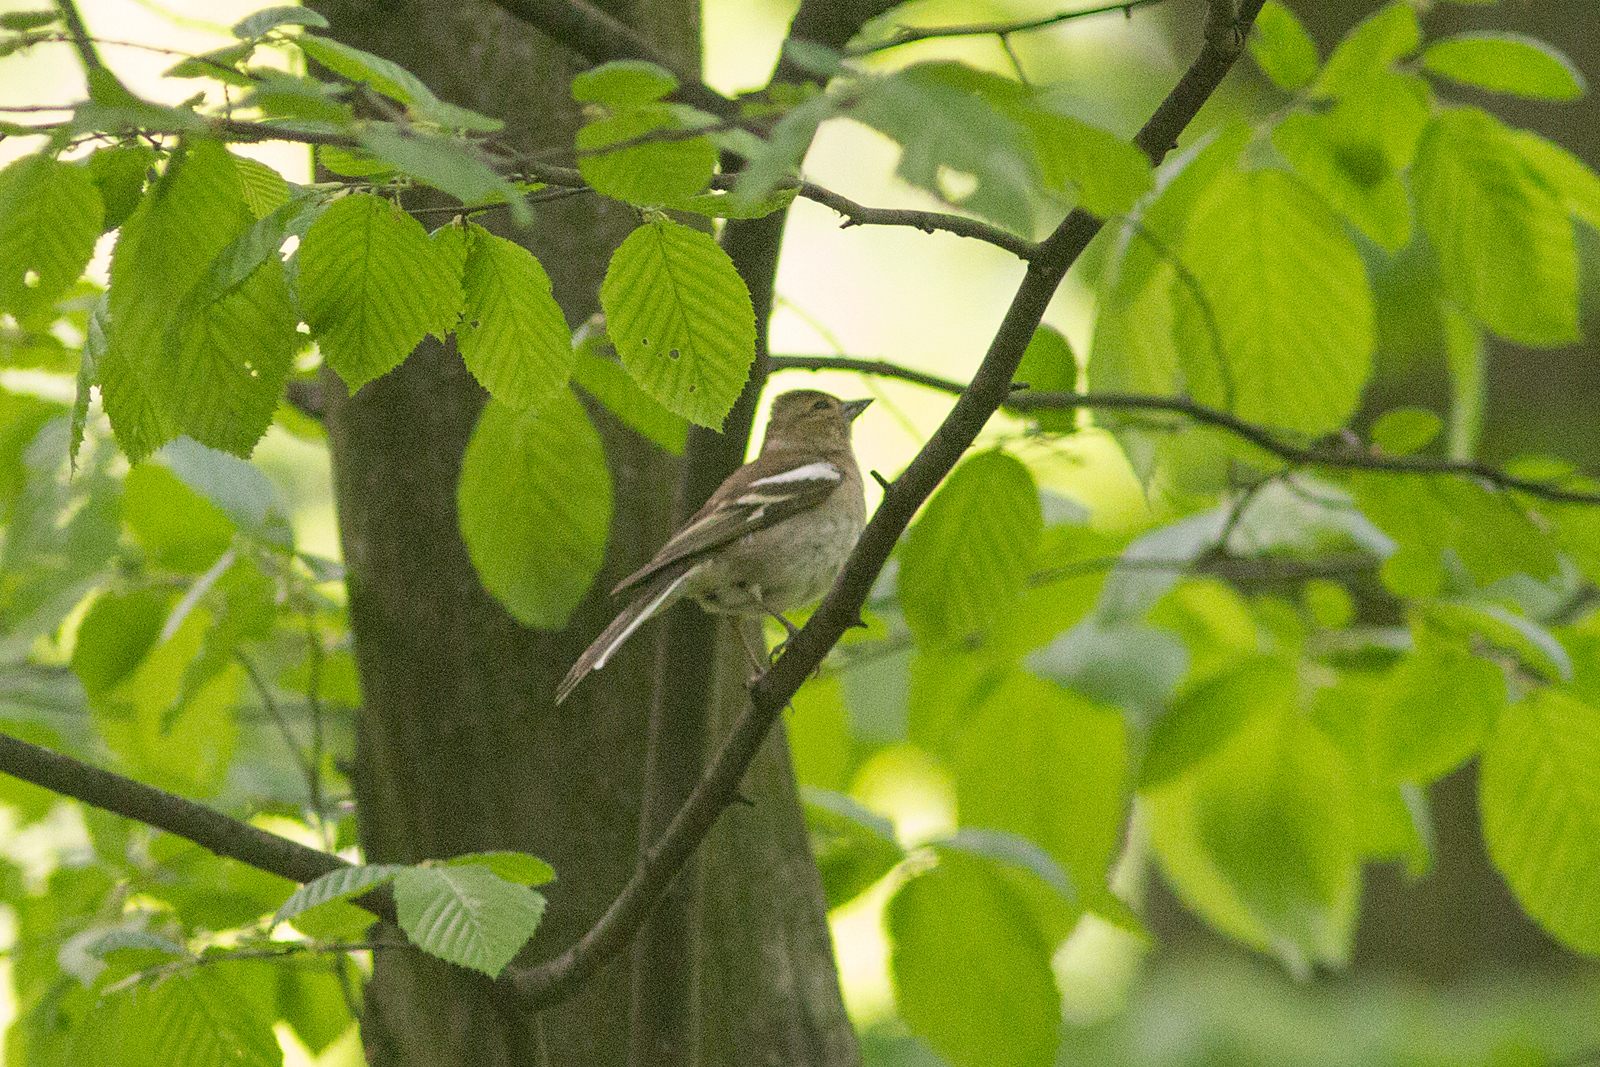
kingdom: Animalia
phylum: Chordata
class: Aves
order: Passeriformes
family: Fringillidae
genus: Fringilla
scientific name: Fringilla coelebs
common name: Common chaffinch
